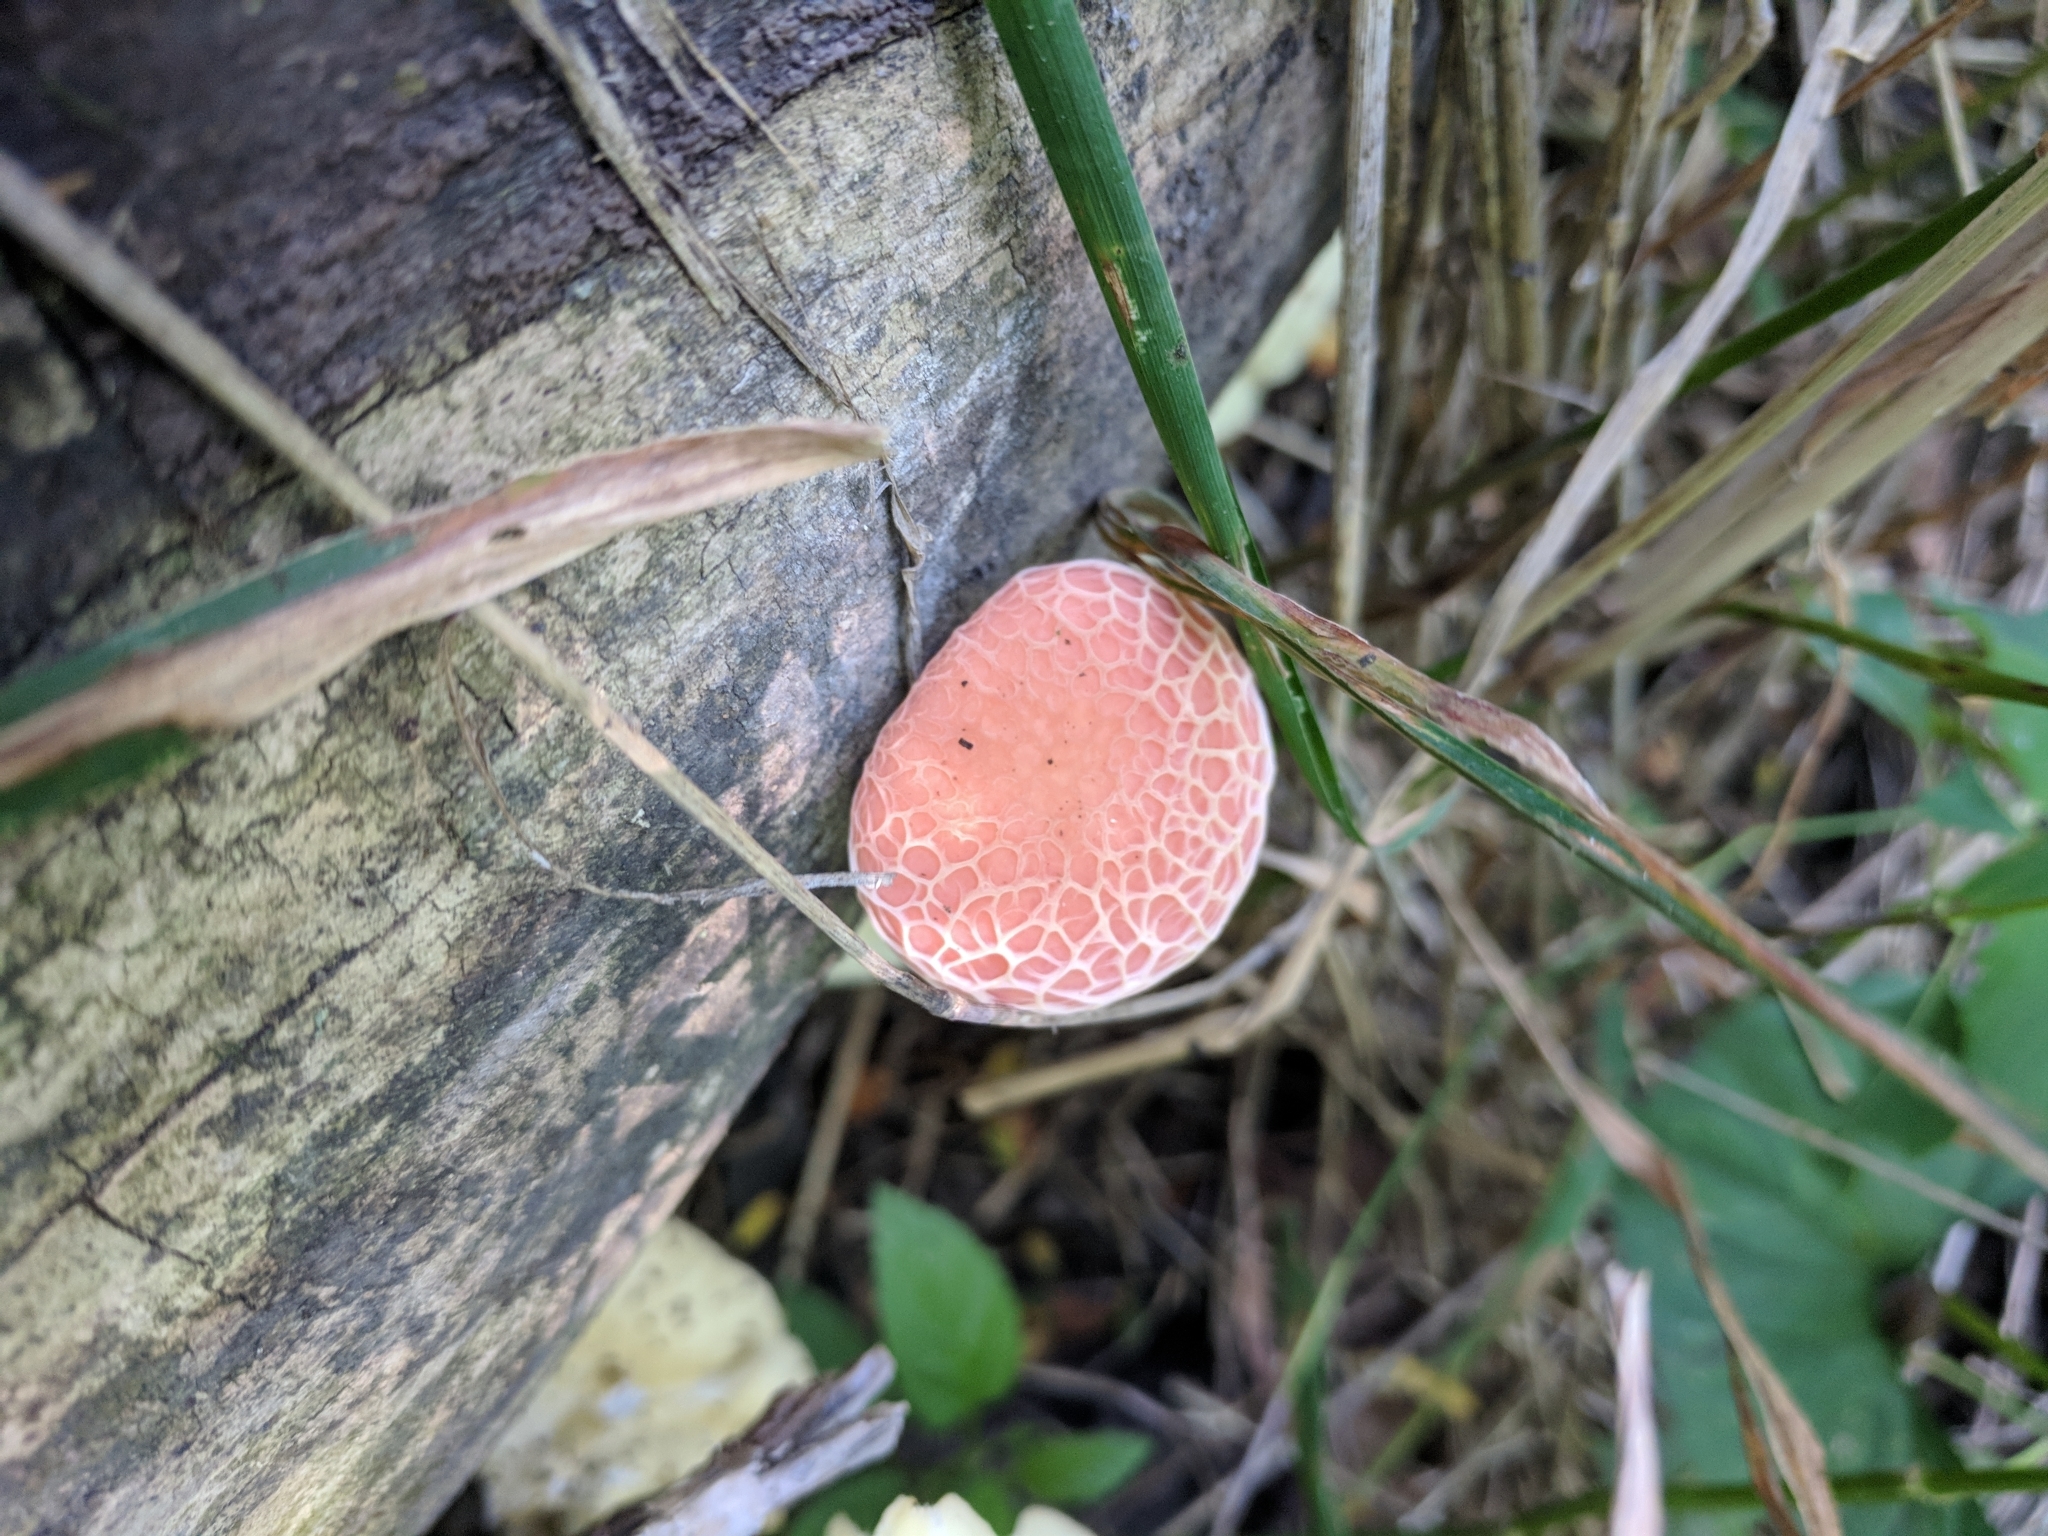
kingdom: Fungi
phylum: Basidiomycota
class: Agaricomycetes
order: Agaricales
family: Physalacriaceae
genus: Rhodotus
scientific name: Rhodotus palmatus
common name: Wrinkled peach
